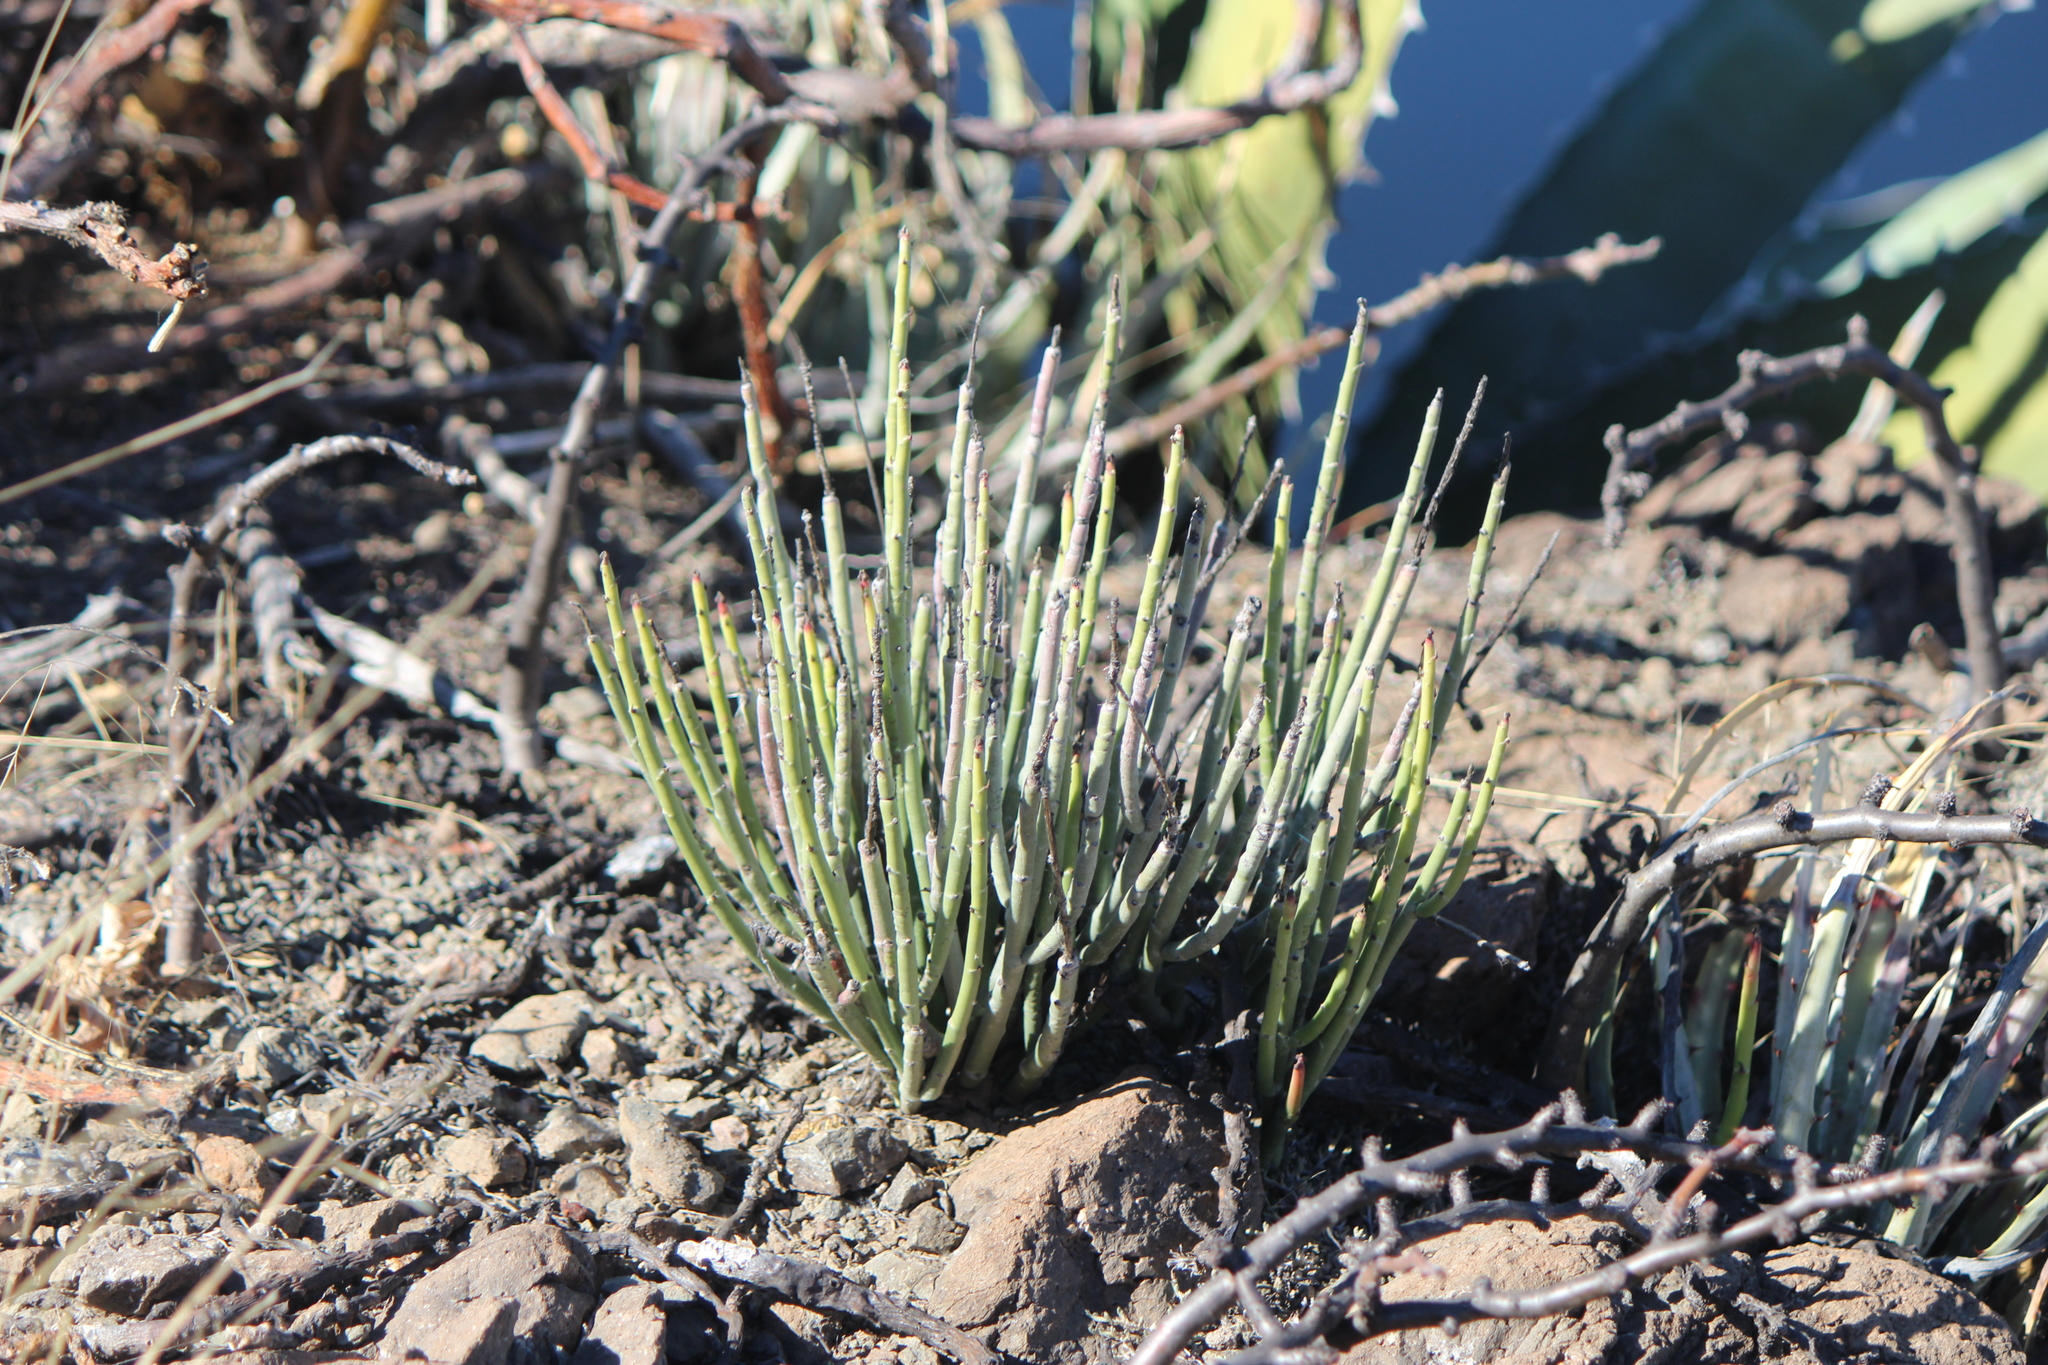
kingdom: Plantae
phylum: Tracheophyta
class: Magnoliopsida
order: Malpighiales
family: Euphorbiaceae
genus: Euphorbia
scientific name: Euphorbia antisyphilitica
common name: Candelilla
